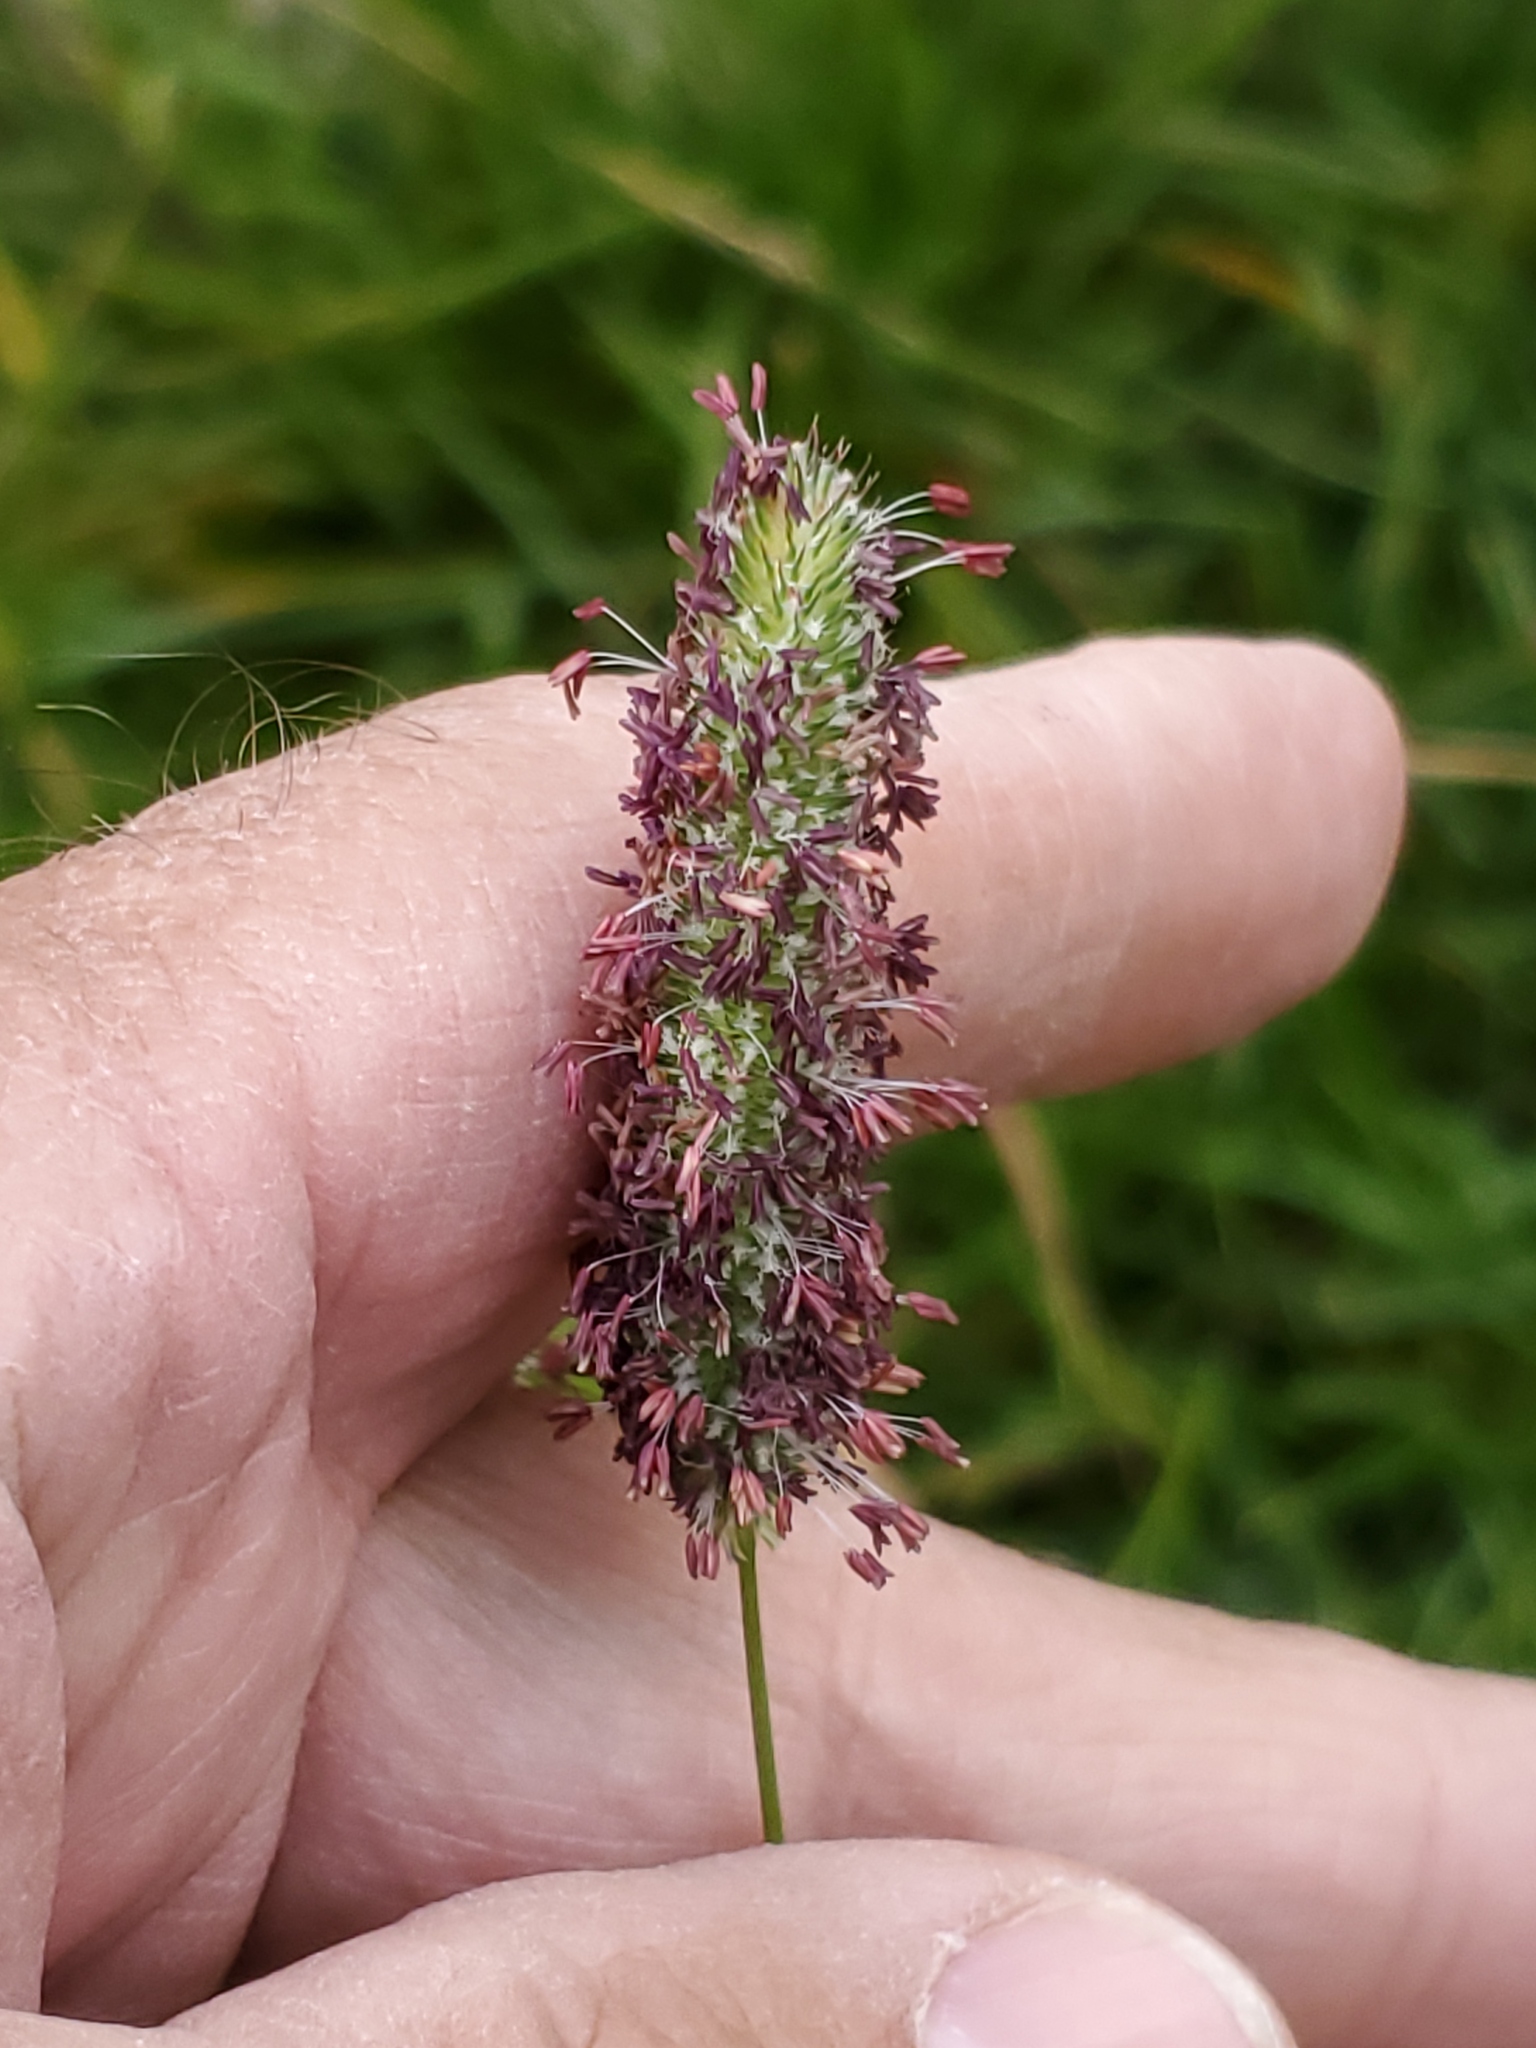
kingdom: Plantae
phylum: Tracheophyta
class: Liliopsida
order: Poales
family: Poaceae
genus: Phleum
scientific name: Phleum alpinum
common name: Alpine cat's-tail
